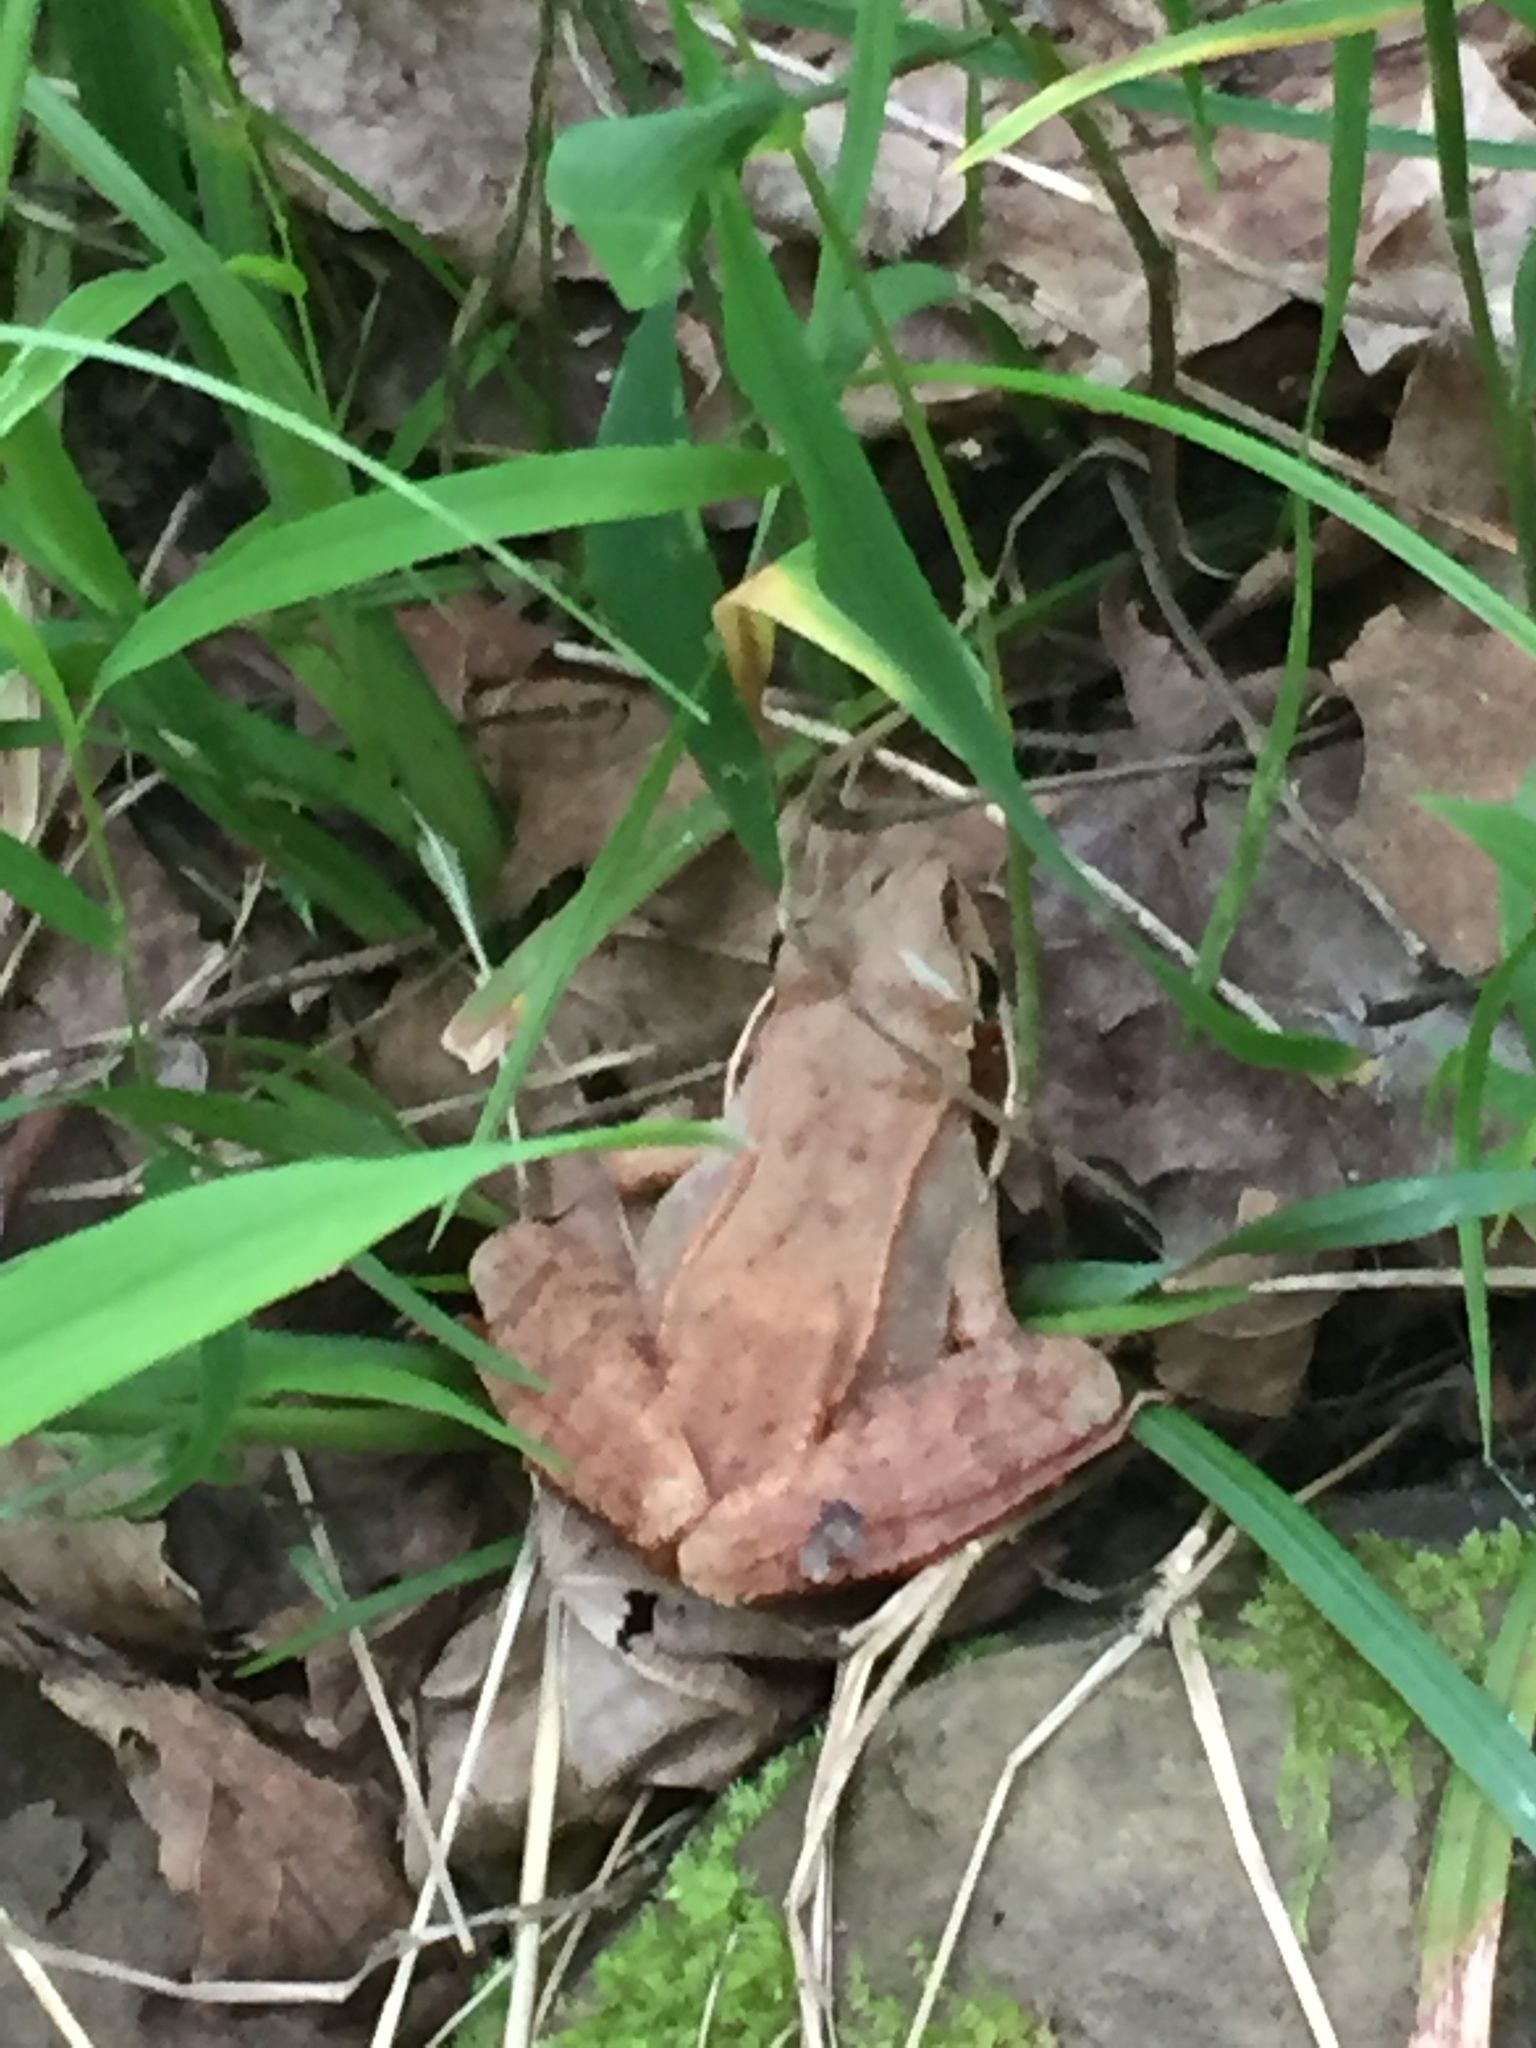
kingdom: Animalia
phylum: Chordata
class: Amphibia
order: Anura
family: Ranidae
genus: Lithobates
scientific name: Lithobates sylvaticus
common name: Wood frog
